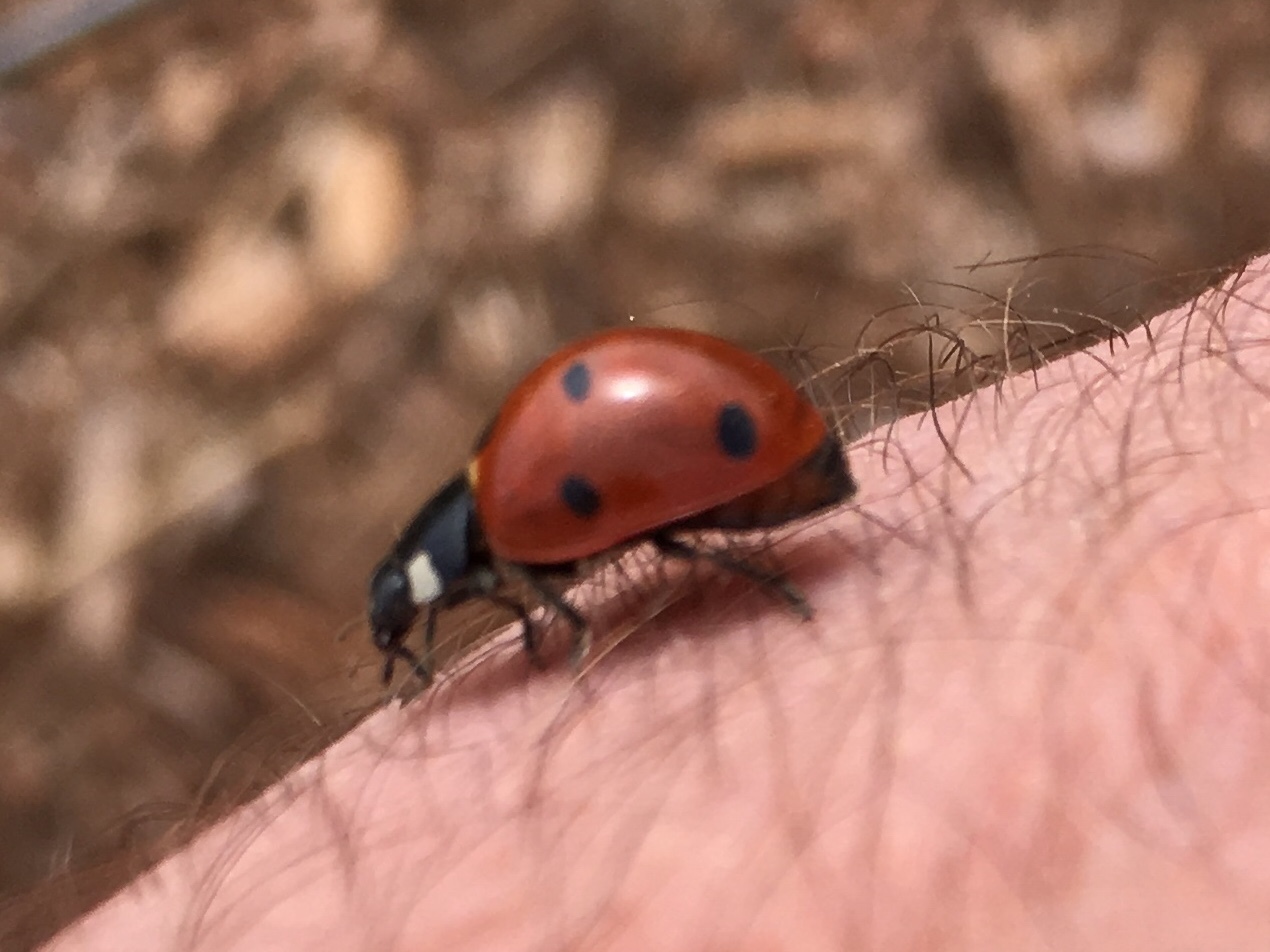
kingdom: Animalia
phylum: Arthropoda
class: Insecta
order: Coleoptera
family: Coccinellidae
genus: Coccinella
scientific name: Coccinella septempunctata
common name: Sevenspotted lady beetle
